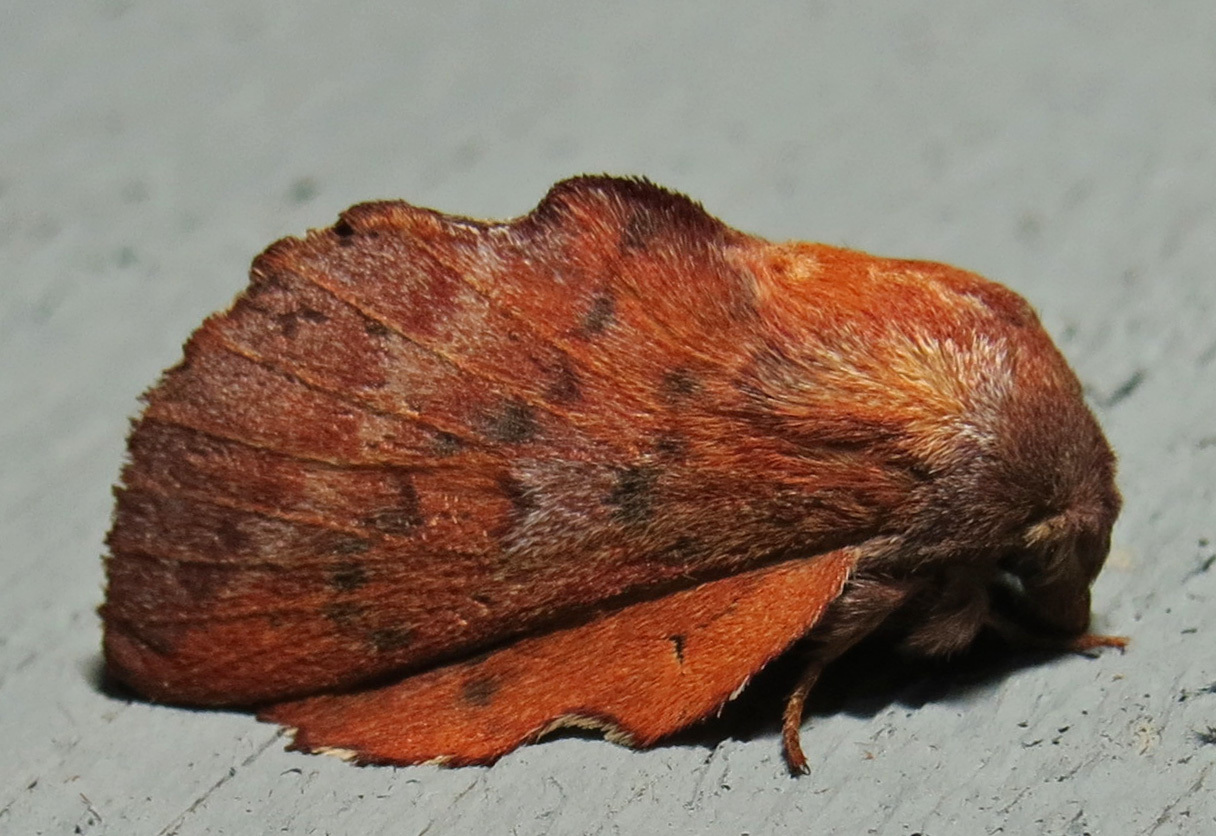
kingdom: Animalia
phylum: Arthropoda
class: Insecta
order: Lepidoptera
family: Lasiocampidae
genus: Phyllodesma
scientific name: Phyllodesma americana
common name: American lappet moth
